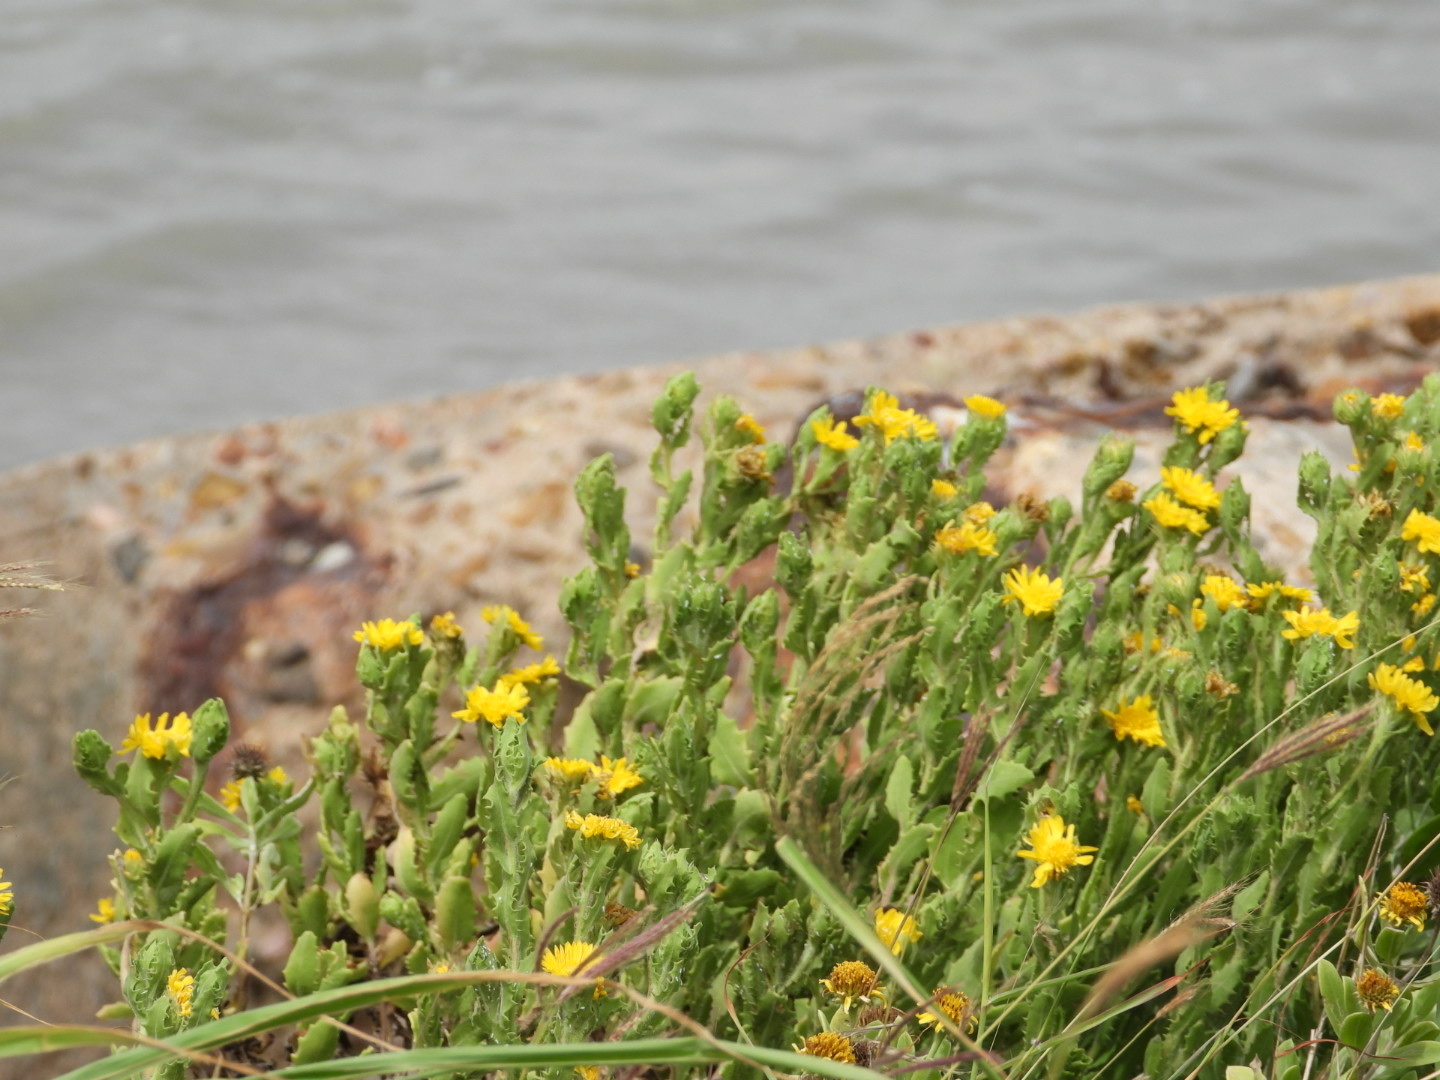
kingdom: Plantae
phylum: Tracheophyta
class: Magnoliopsida
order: Asterales
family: Asteraceae
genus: Rayjacksonia
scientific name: Rayjacksonia phyllocephala
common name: Gulf coast camphor daisy
